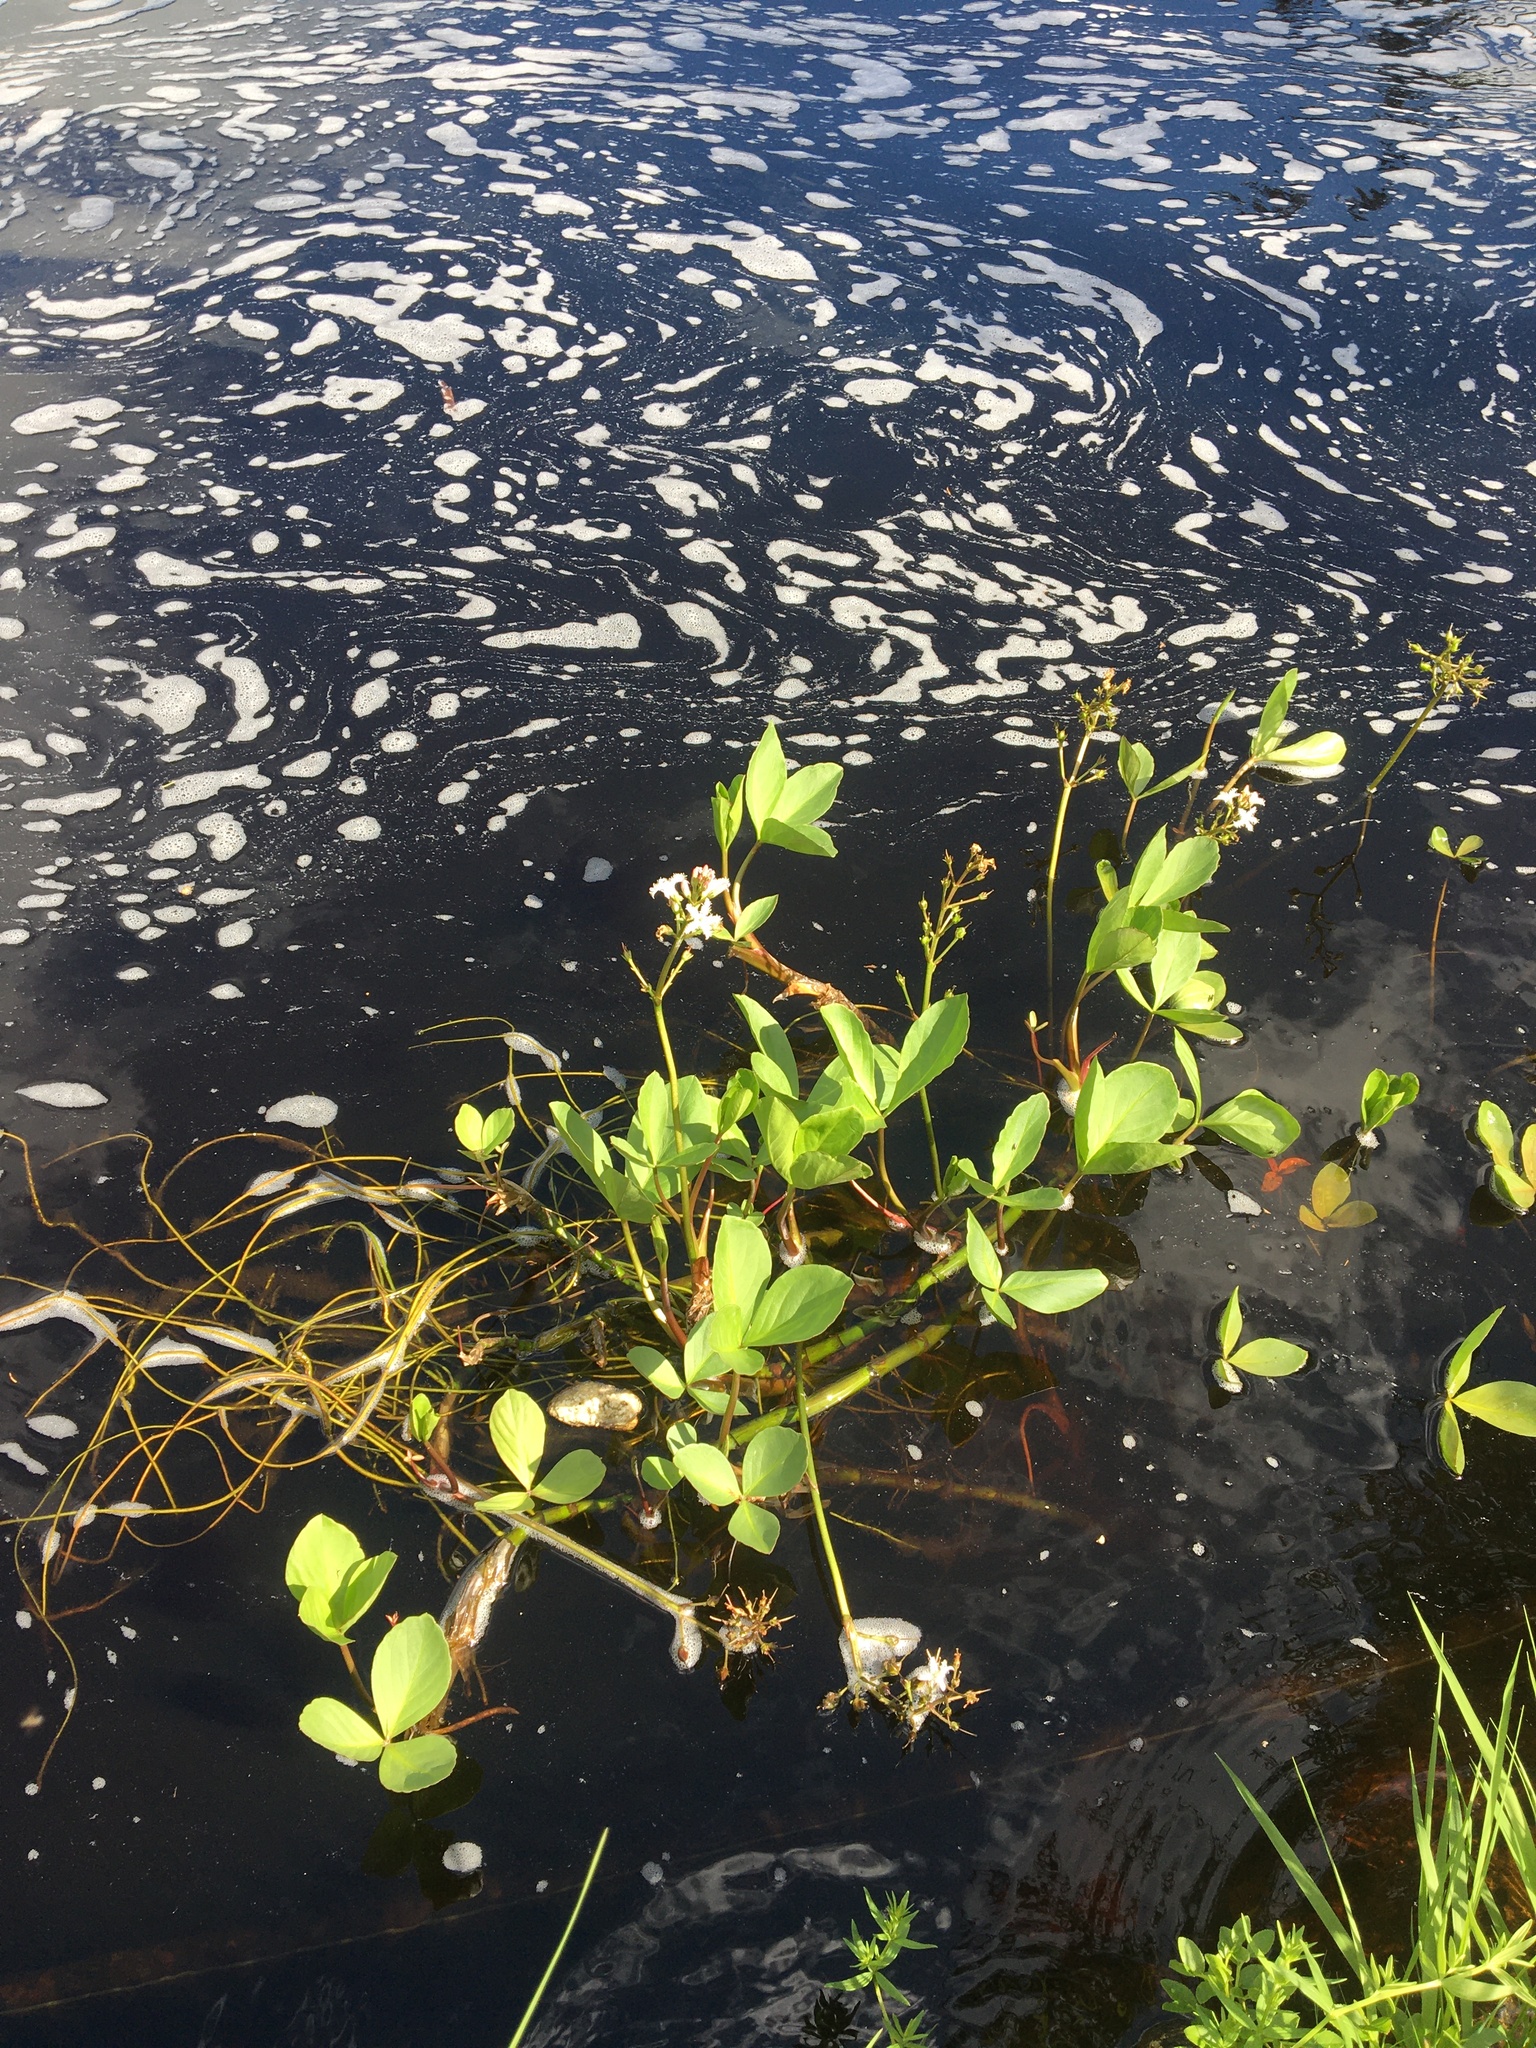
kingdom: Plantae
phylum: Tracheophyta
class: Magnoliopsida
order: Asterales
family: Menyanthaceae
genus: Menyanthes
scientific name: Menyanthes trifoliata
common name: Bogbean
